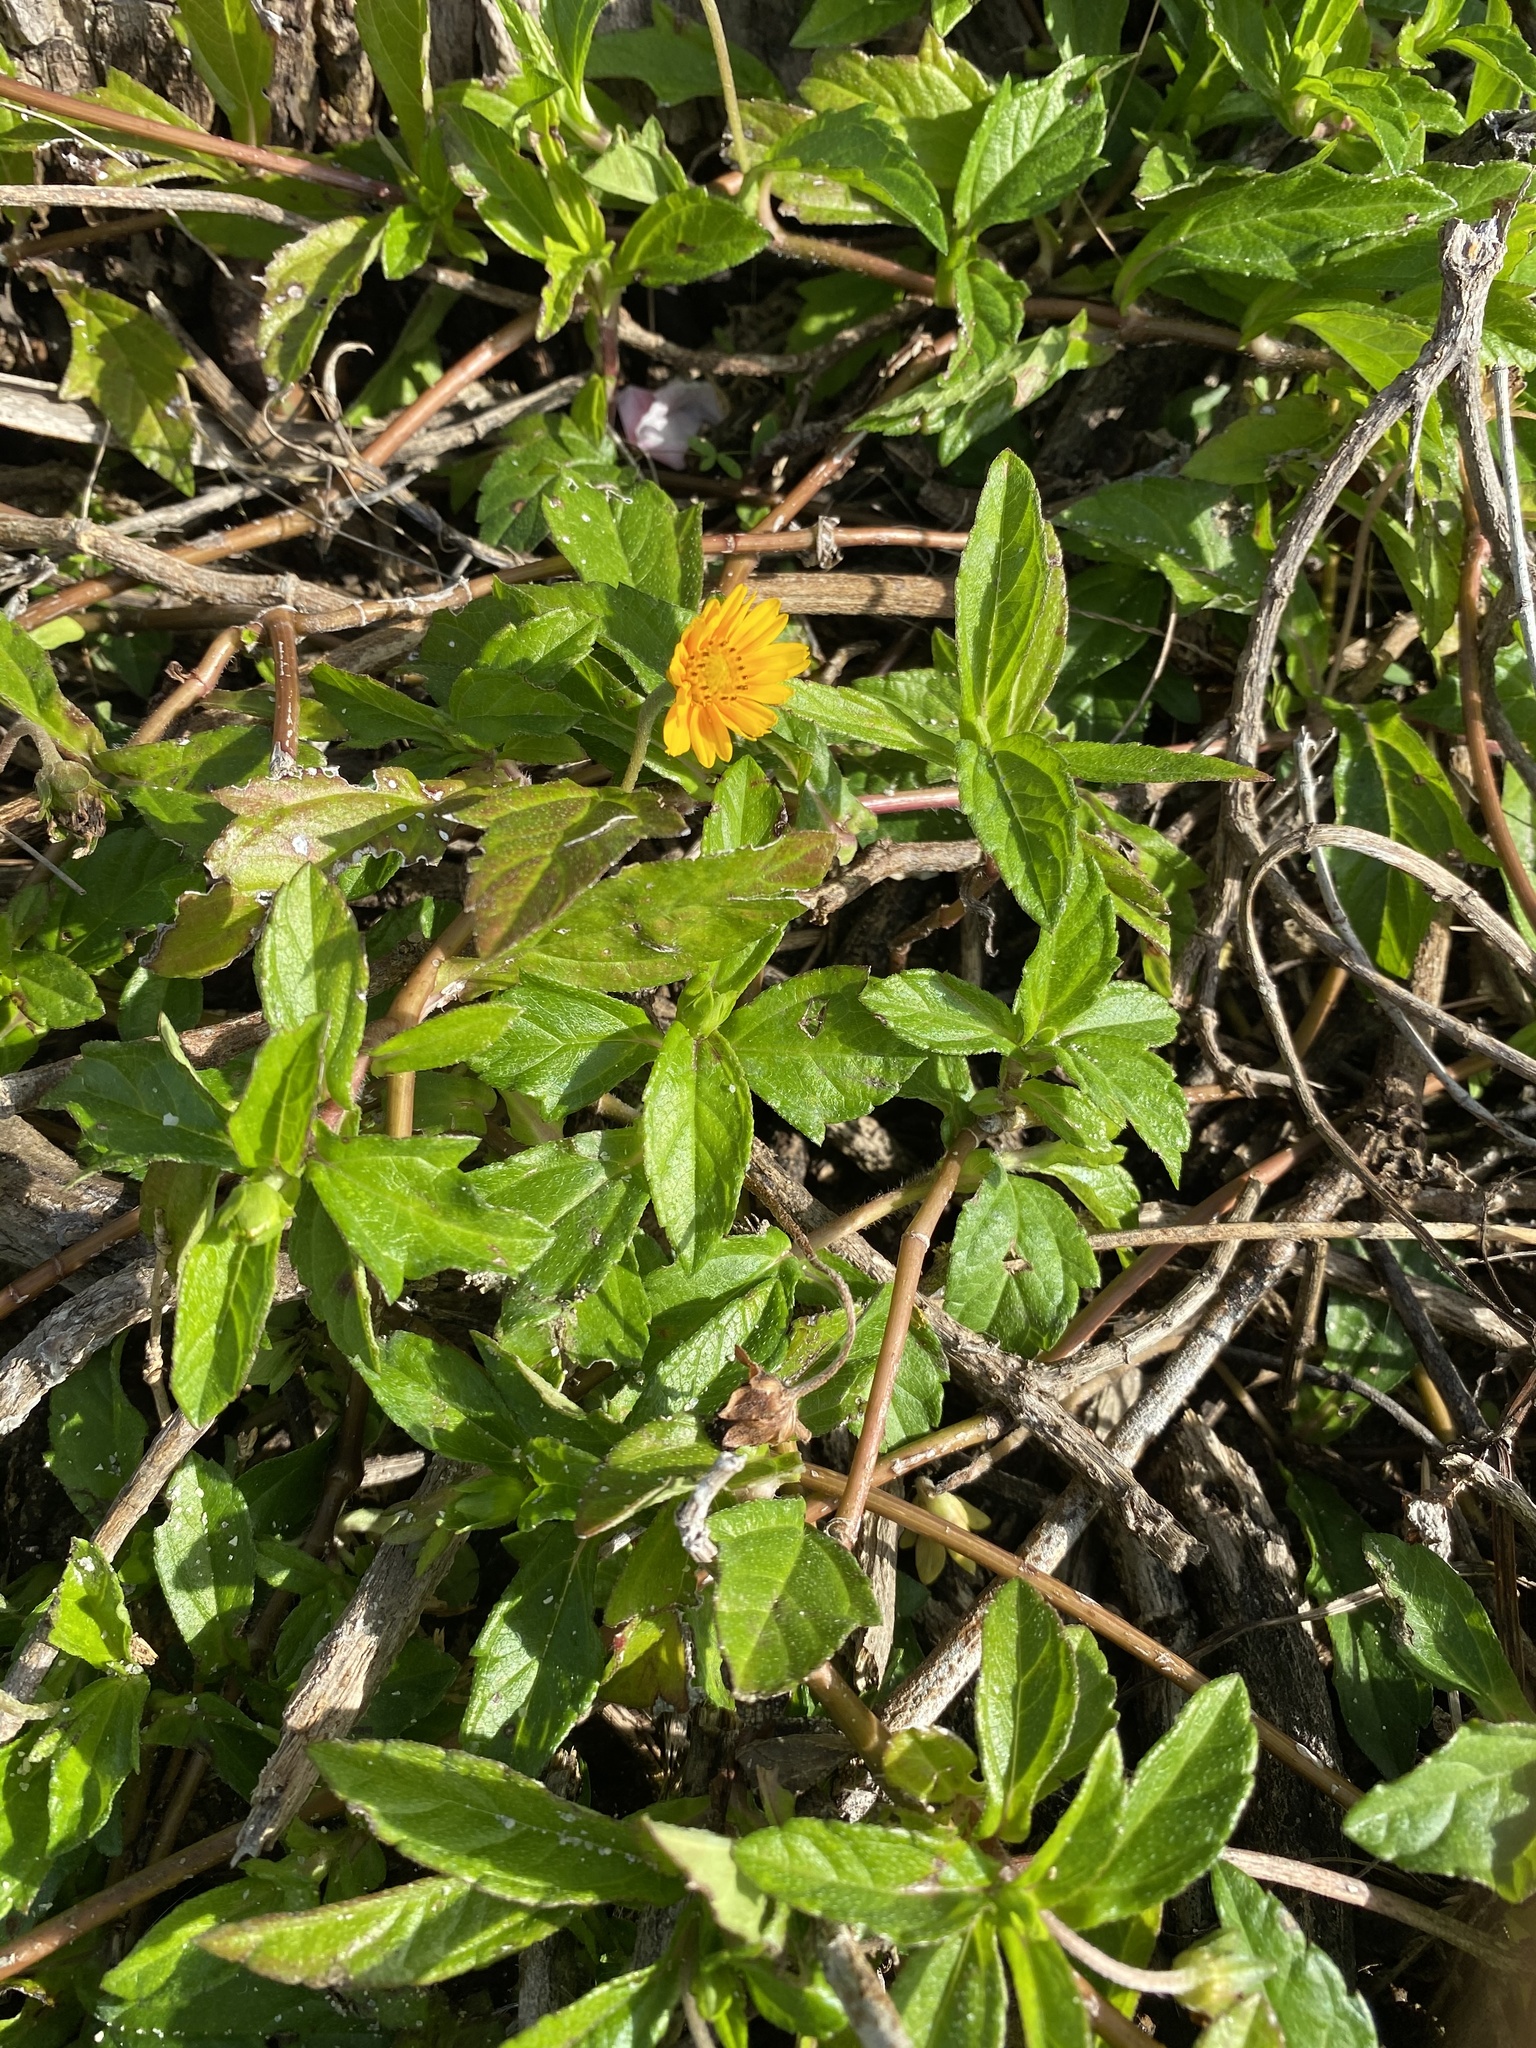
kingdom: Plantae
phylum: Tracheophyta
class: Magnoliopsida
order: Asterales
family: Asteraceae
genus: Sphagneticola
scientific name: Sphagneticola trilobata
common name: Bay biscayne creeping-oxeye
